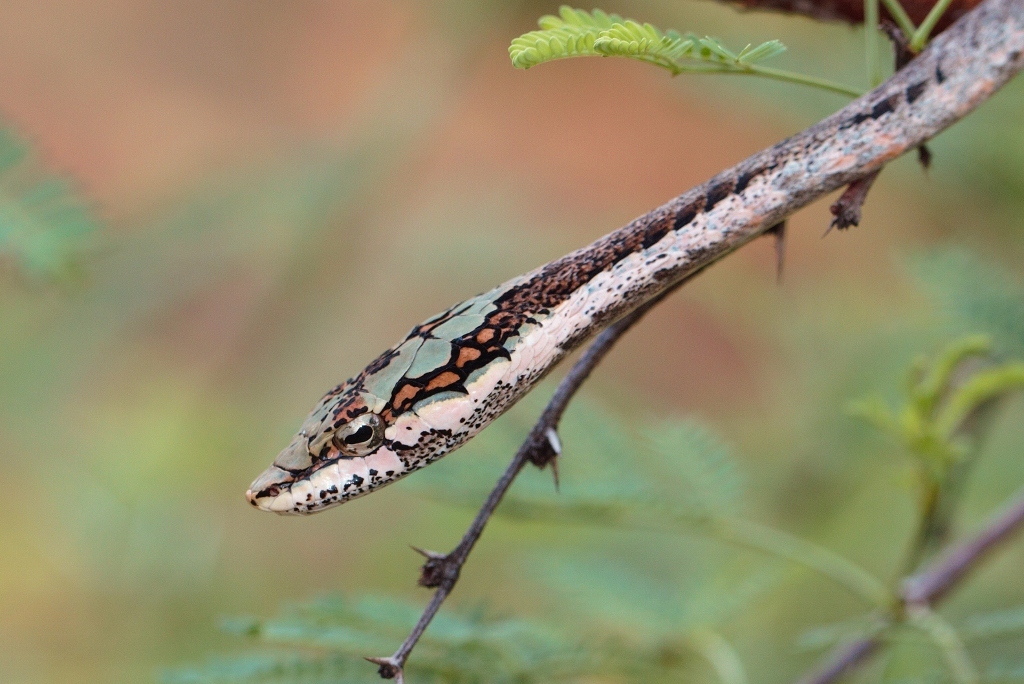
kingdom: Animalia
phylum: Chordata
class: Squamata
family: Colubridae
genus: Thelotornis
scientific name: Thelotornis capensis
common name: Savanna vine snake
